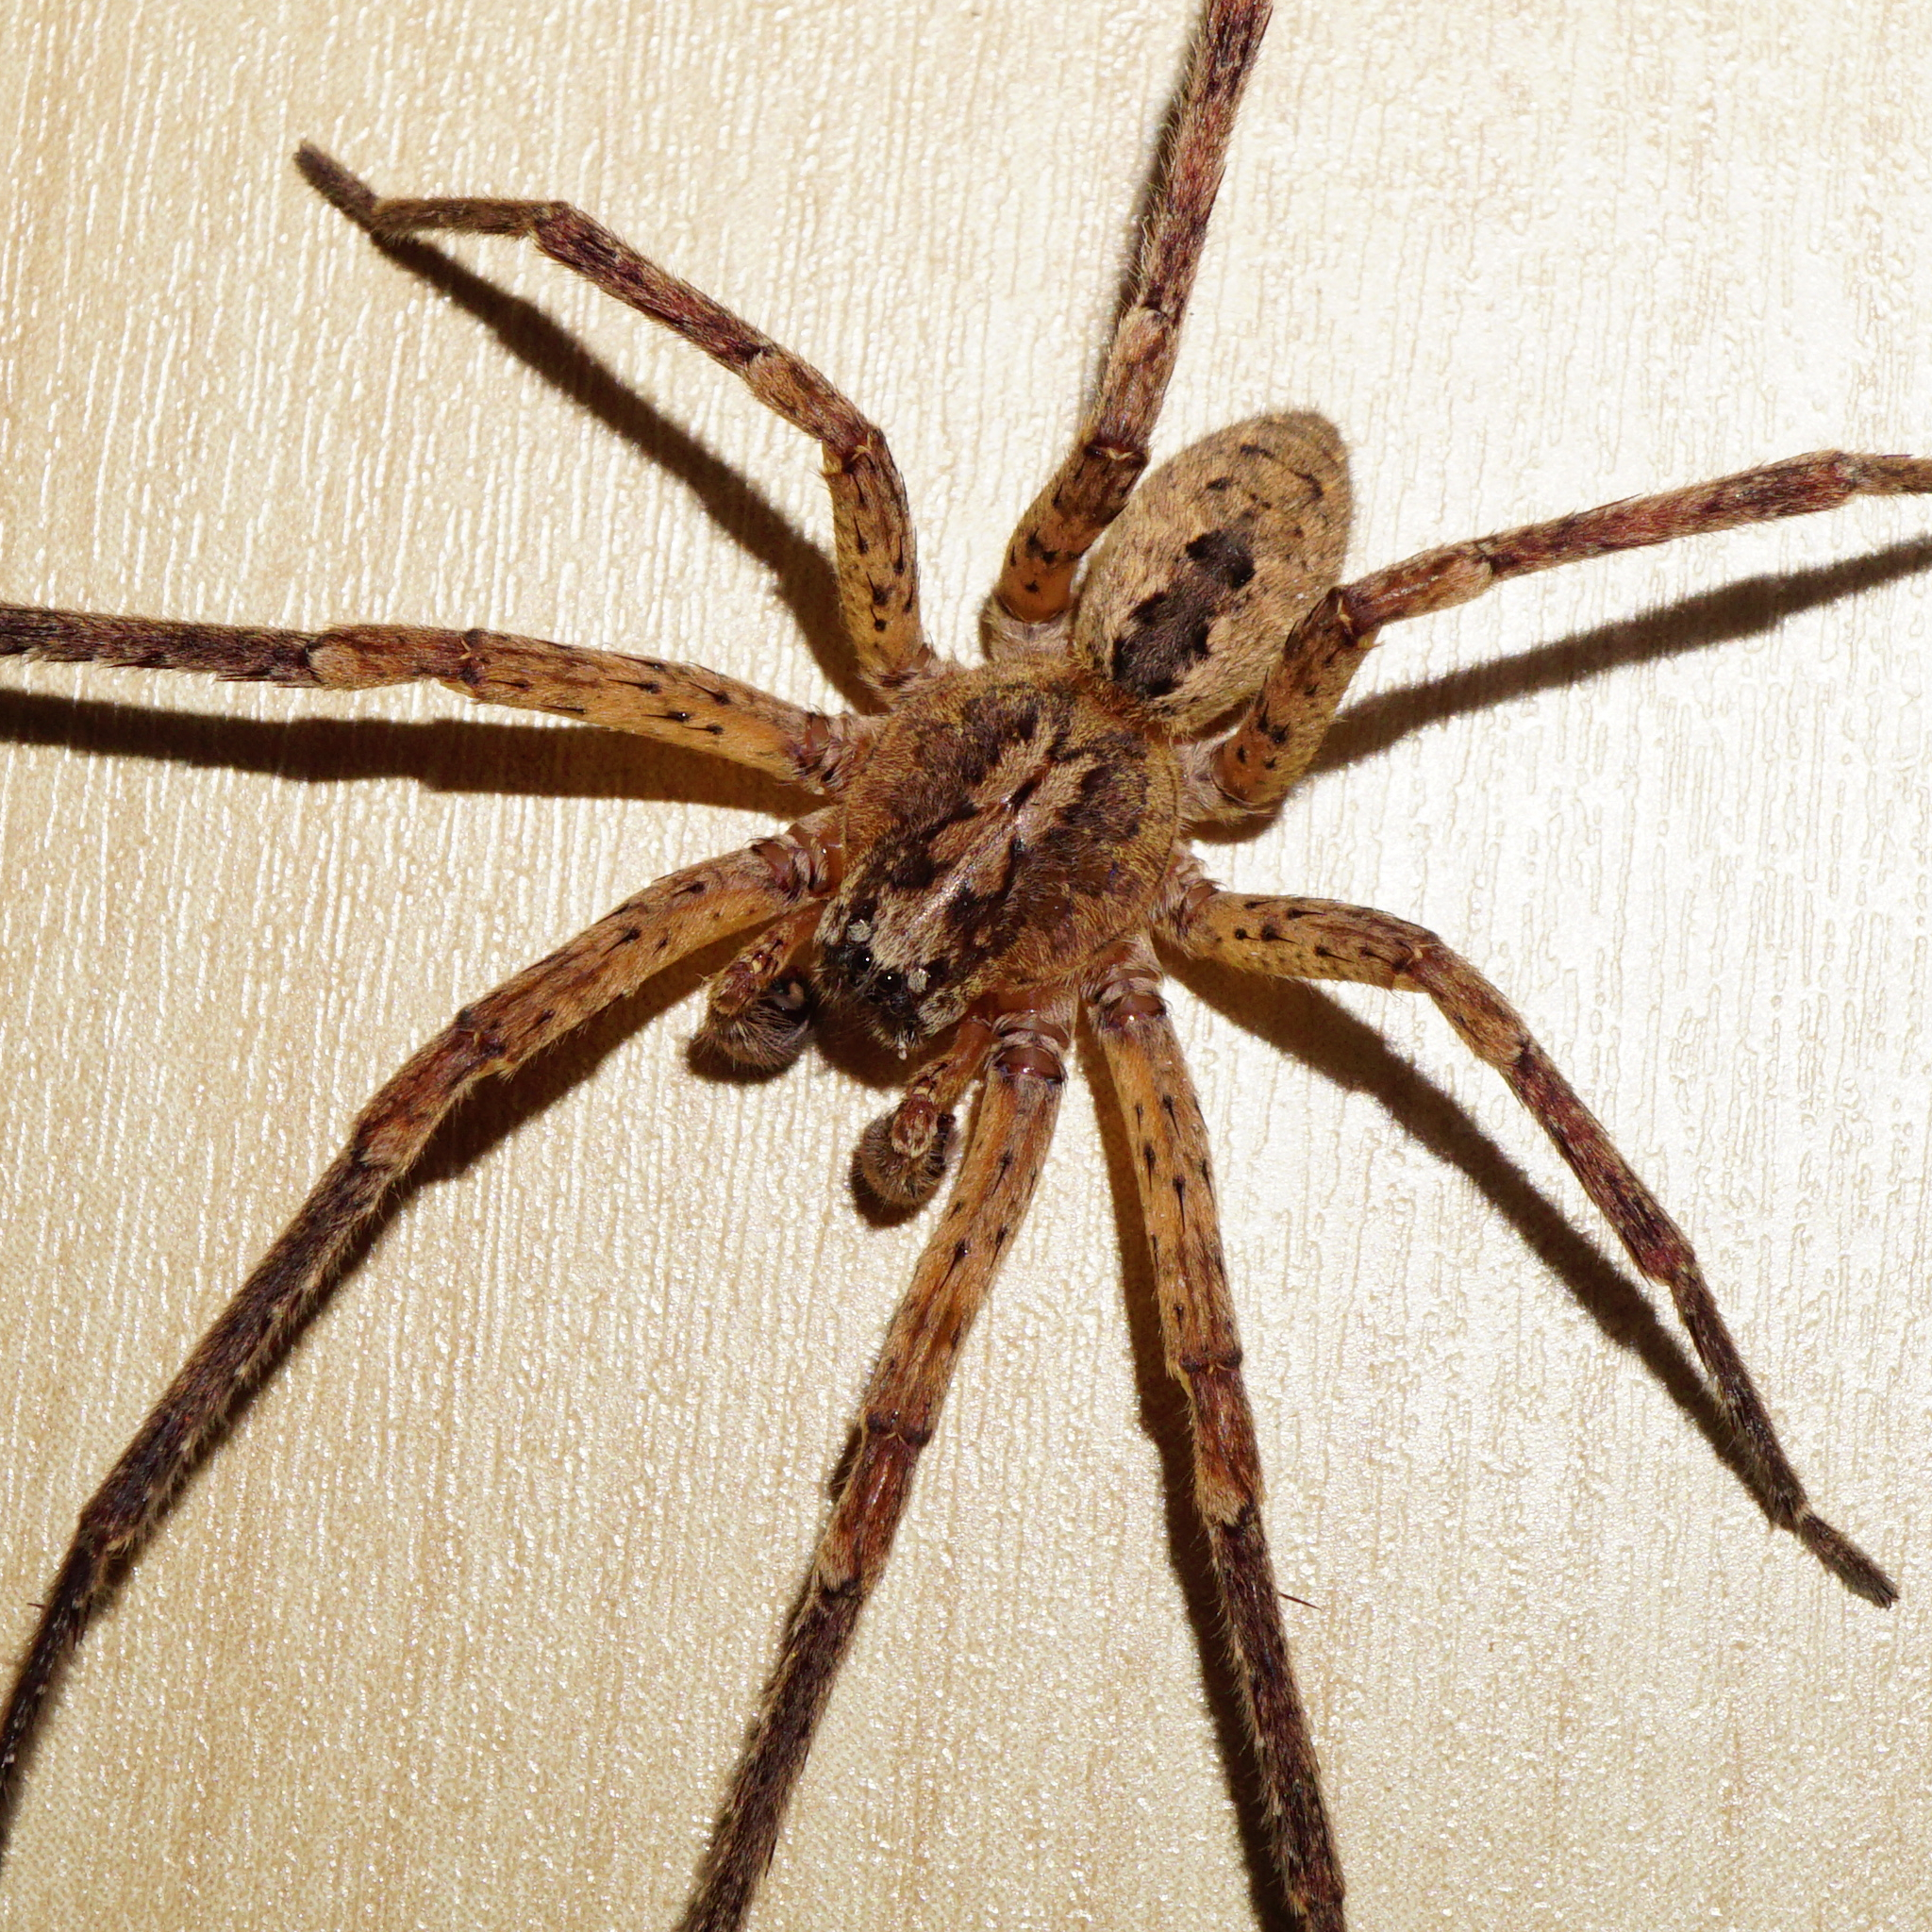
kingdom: Animalia
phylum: Arthropoda
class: Arachnida
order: Araneae
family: Zoropsidae
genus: Zoropsis
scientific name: Zoropsis spinimana
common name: Zoropsid spider
